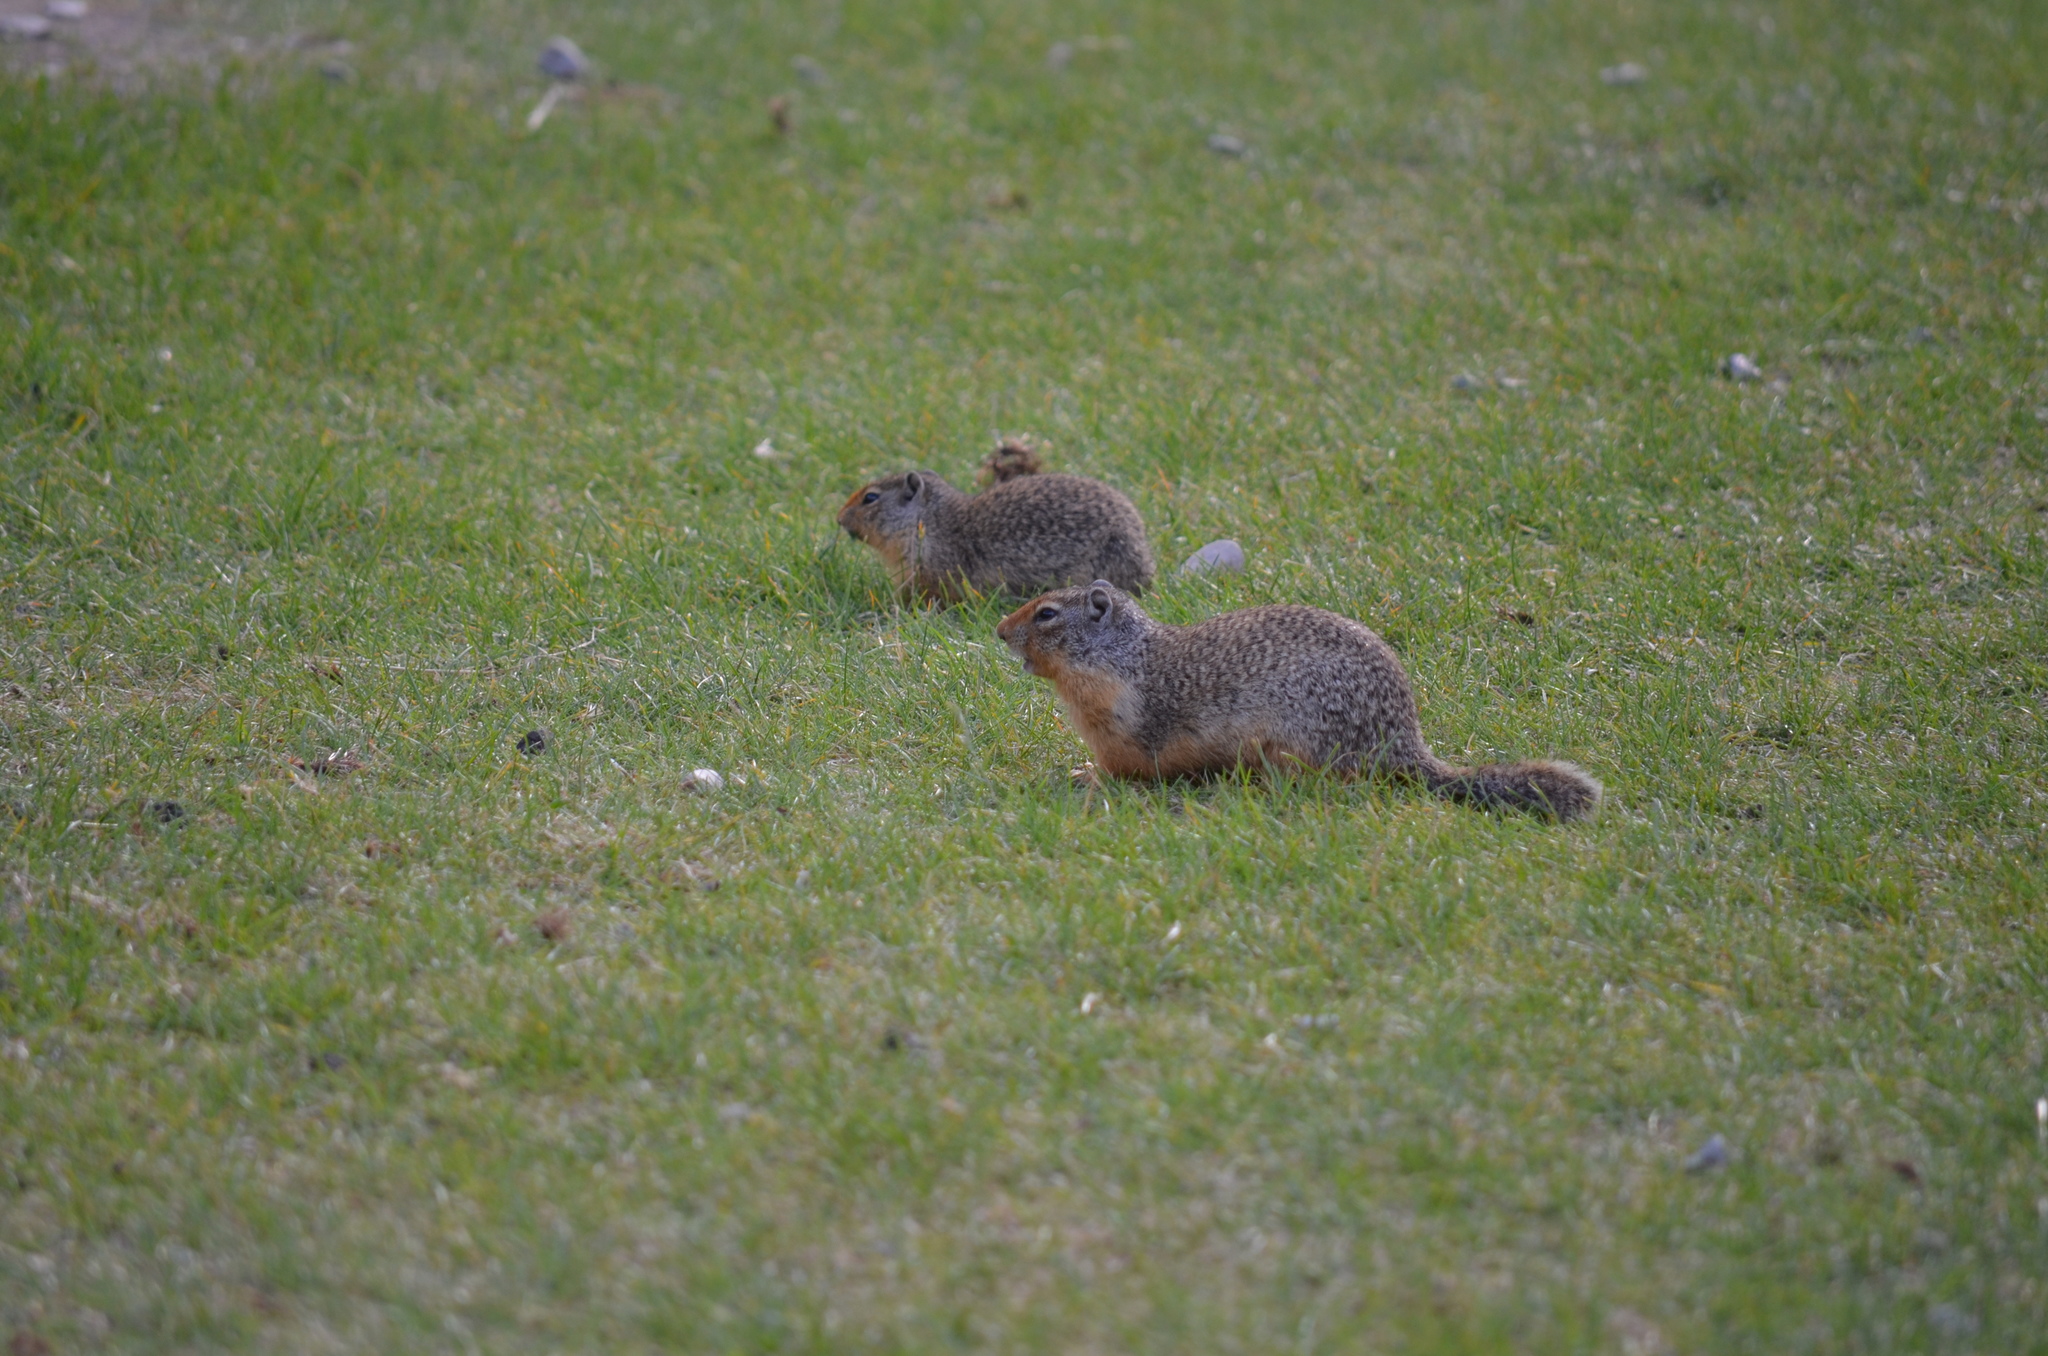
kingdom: Animalia
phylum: Chordata
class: Mammalia
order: Rodentia
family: Sciuridae
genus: Urocitellus
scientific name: Urocitellus columbianus
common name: Columbian ground squirrel
